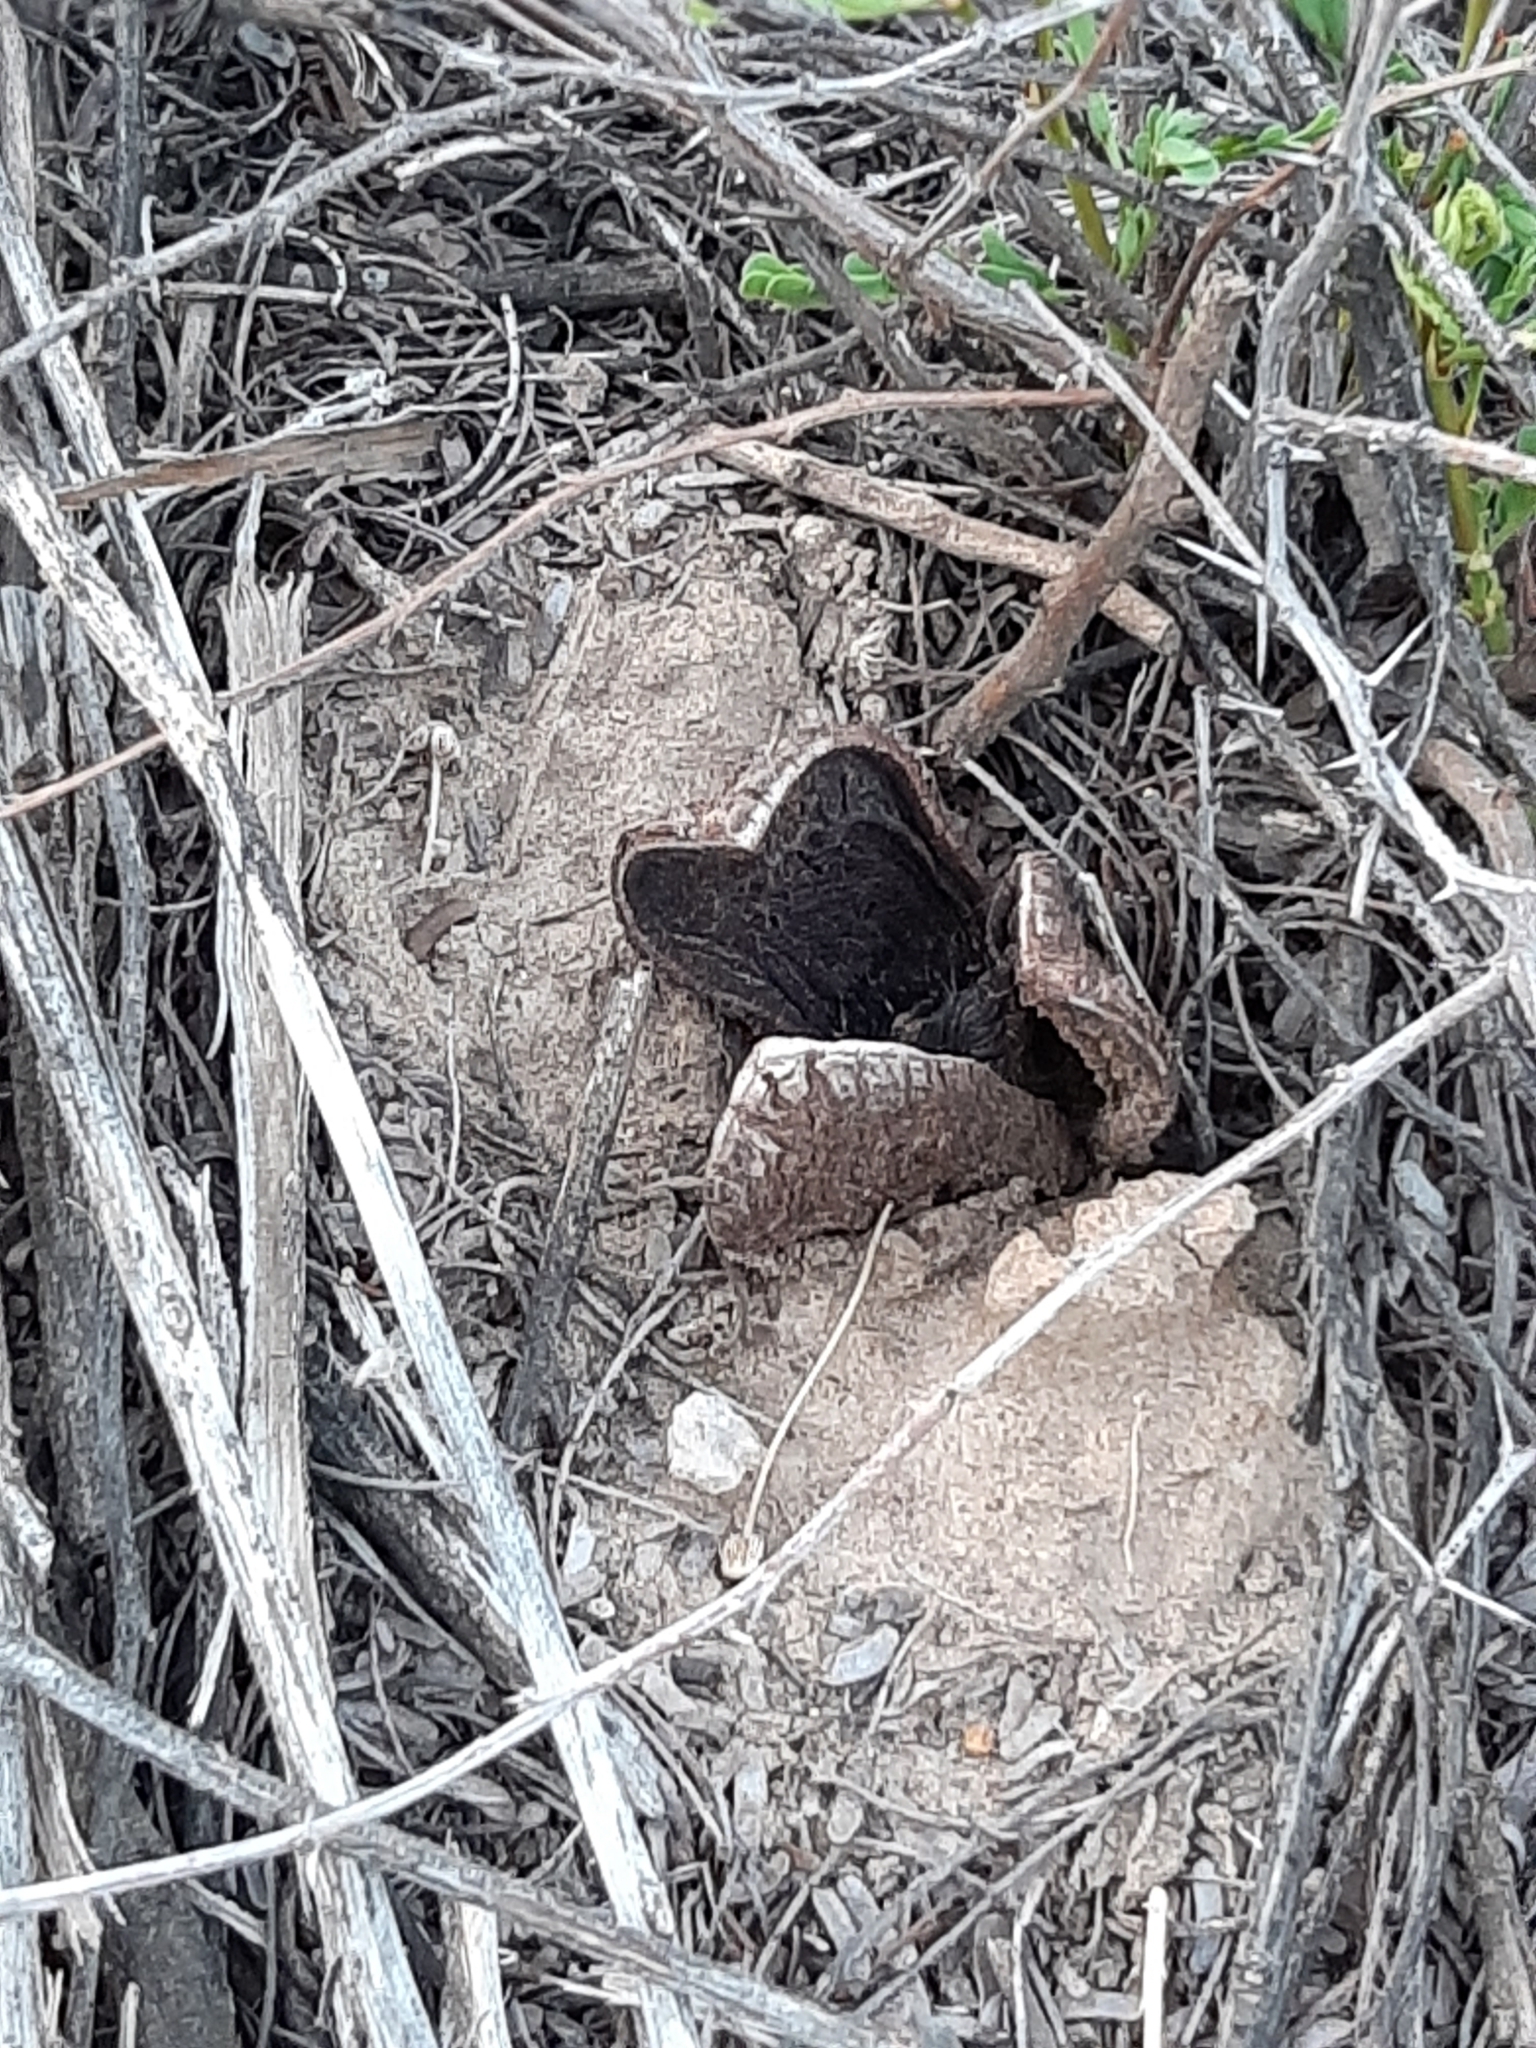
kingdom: Plantae
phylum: Tracheophyta
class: Magnoliopsida
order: Piperales
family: Hydnoraceae
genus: Prosopanche
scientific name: Prosopanche americana
